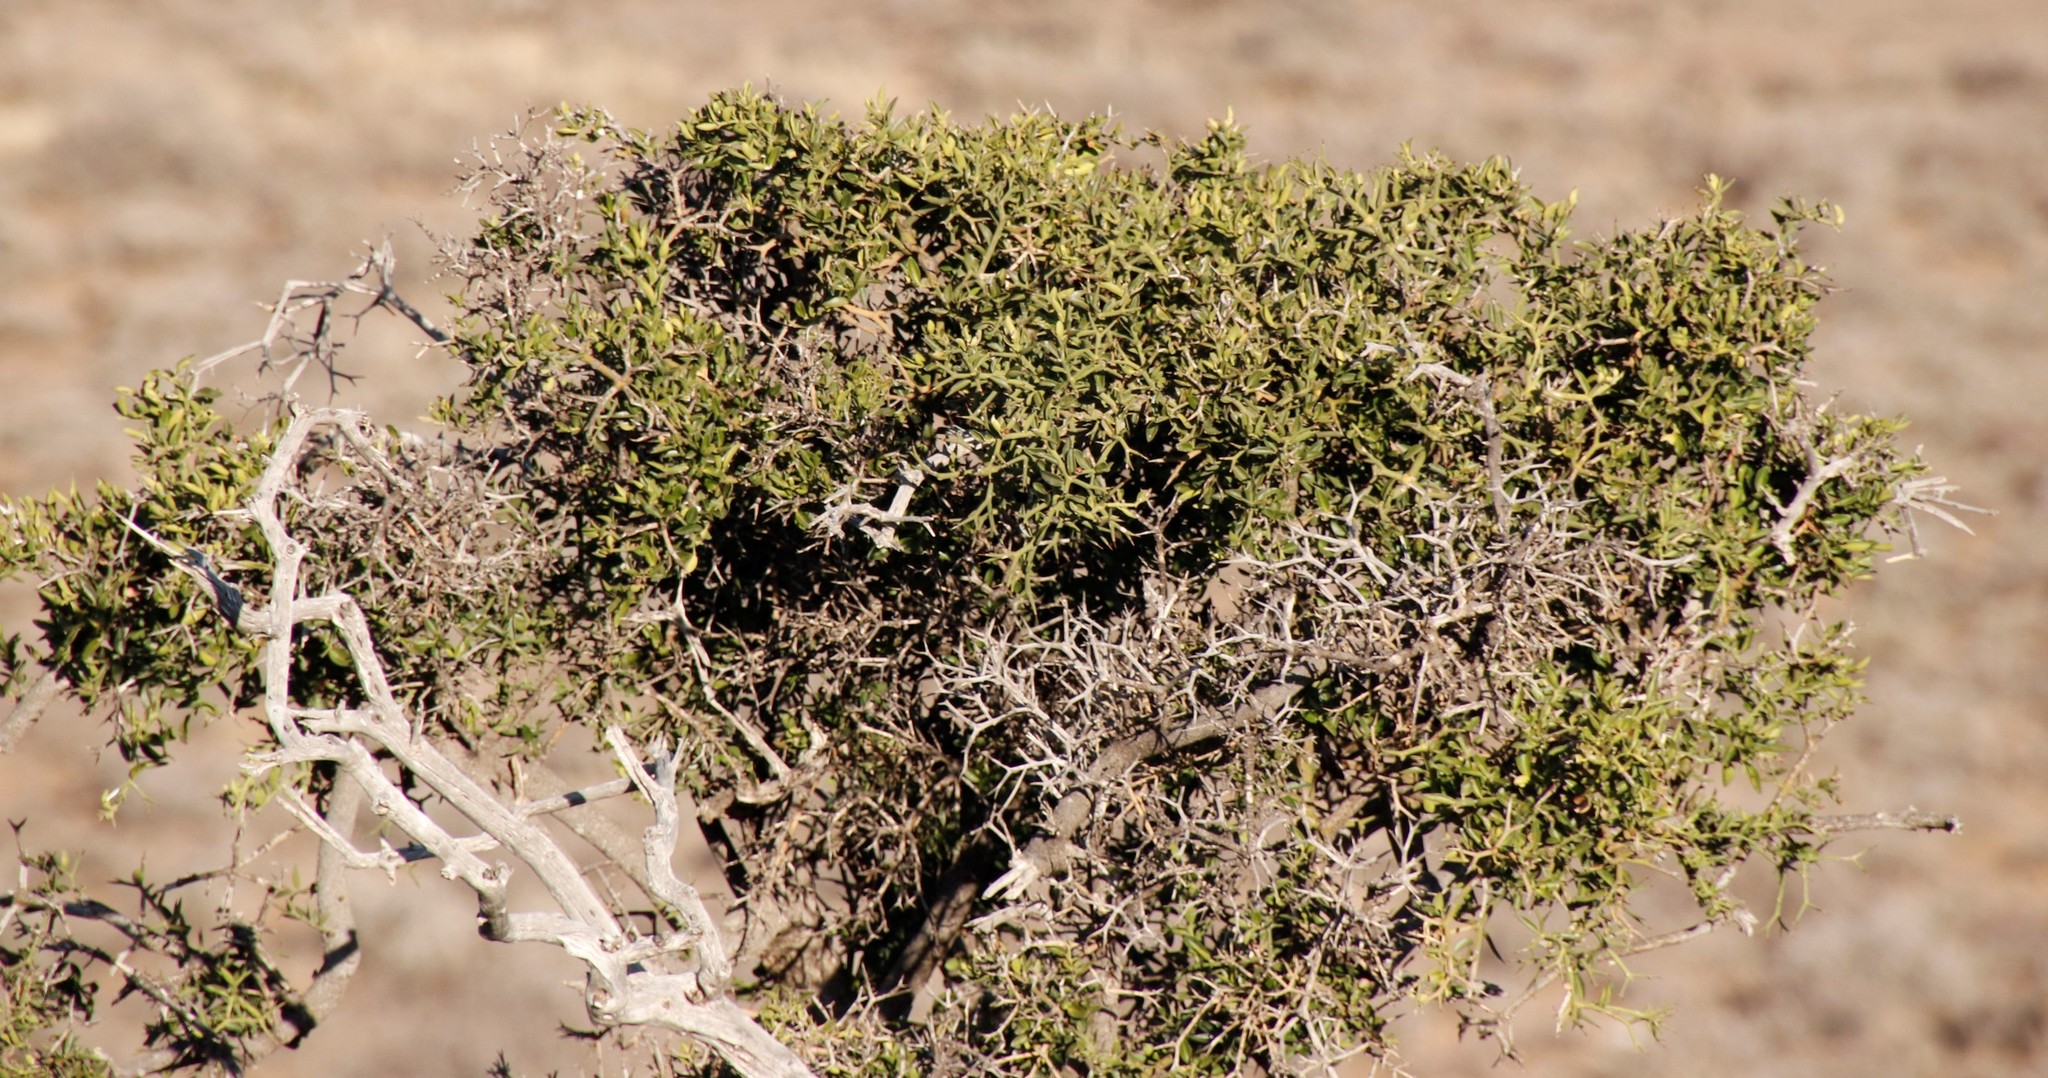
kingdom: Plantae
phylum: Tracheophyta
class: Magnoliopsida
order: Gentianales
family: Apocynaceae
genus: Carissa
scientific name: Carissa haematocarpa
